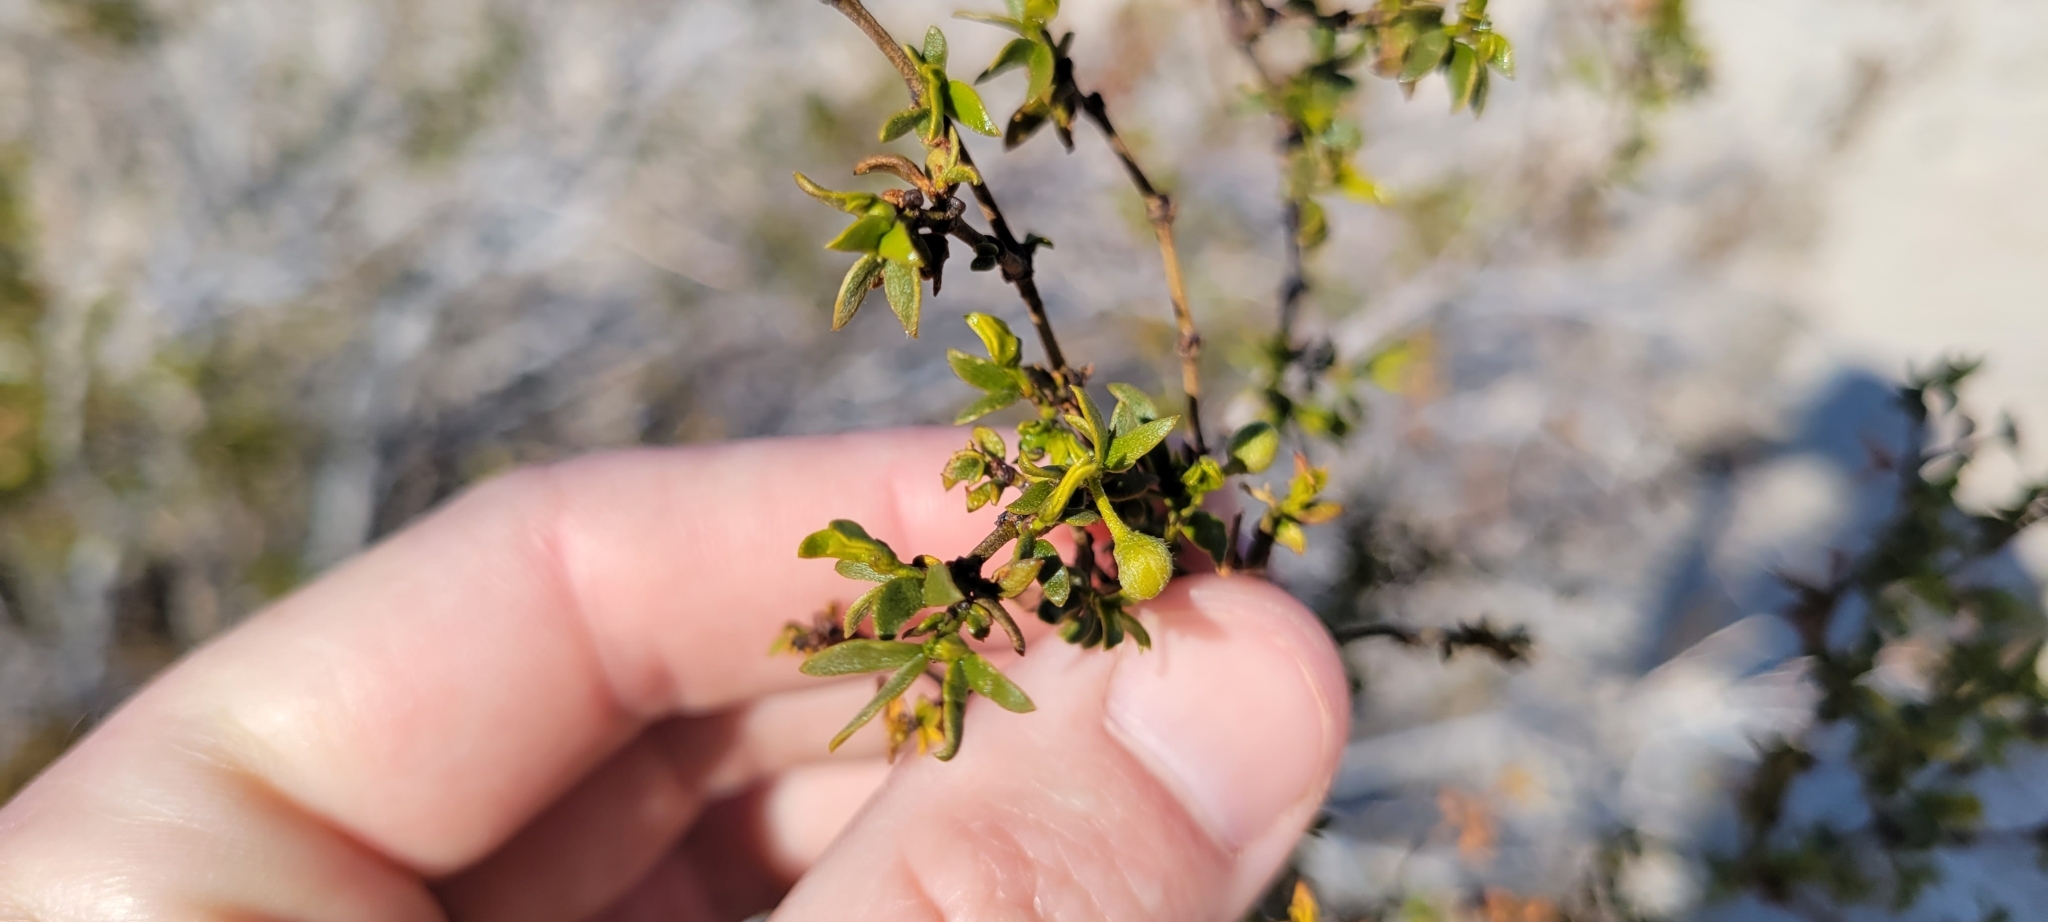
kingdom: Plantae
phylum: Tracheophyta
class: Magnoliopsida
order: Zygophyllales
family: Zygophyllaceae
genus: Larrea
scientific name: Larrea tridentata
